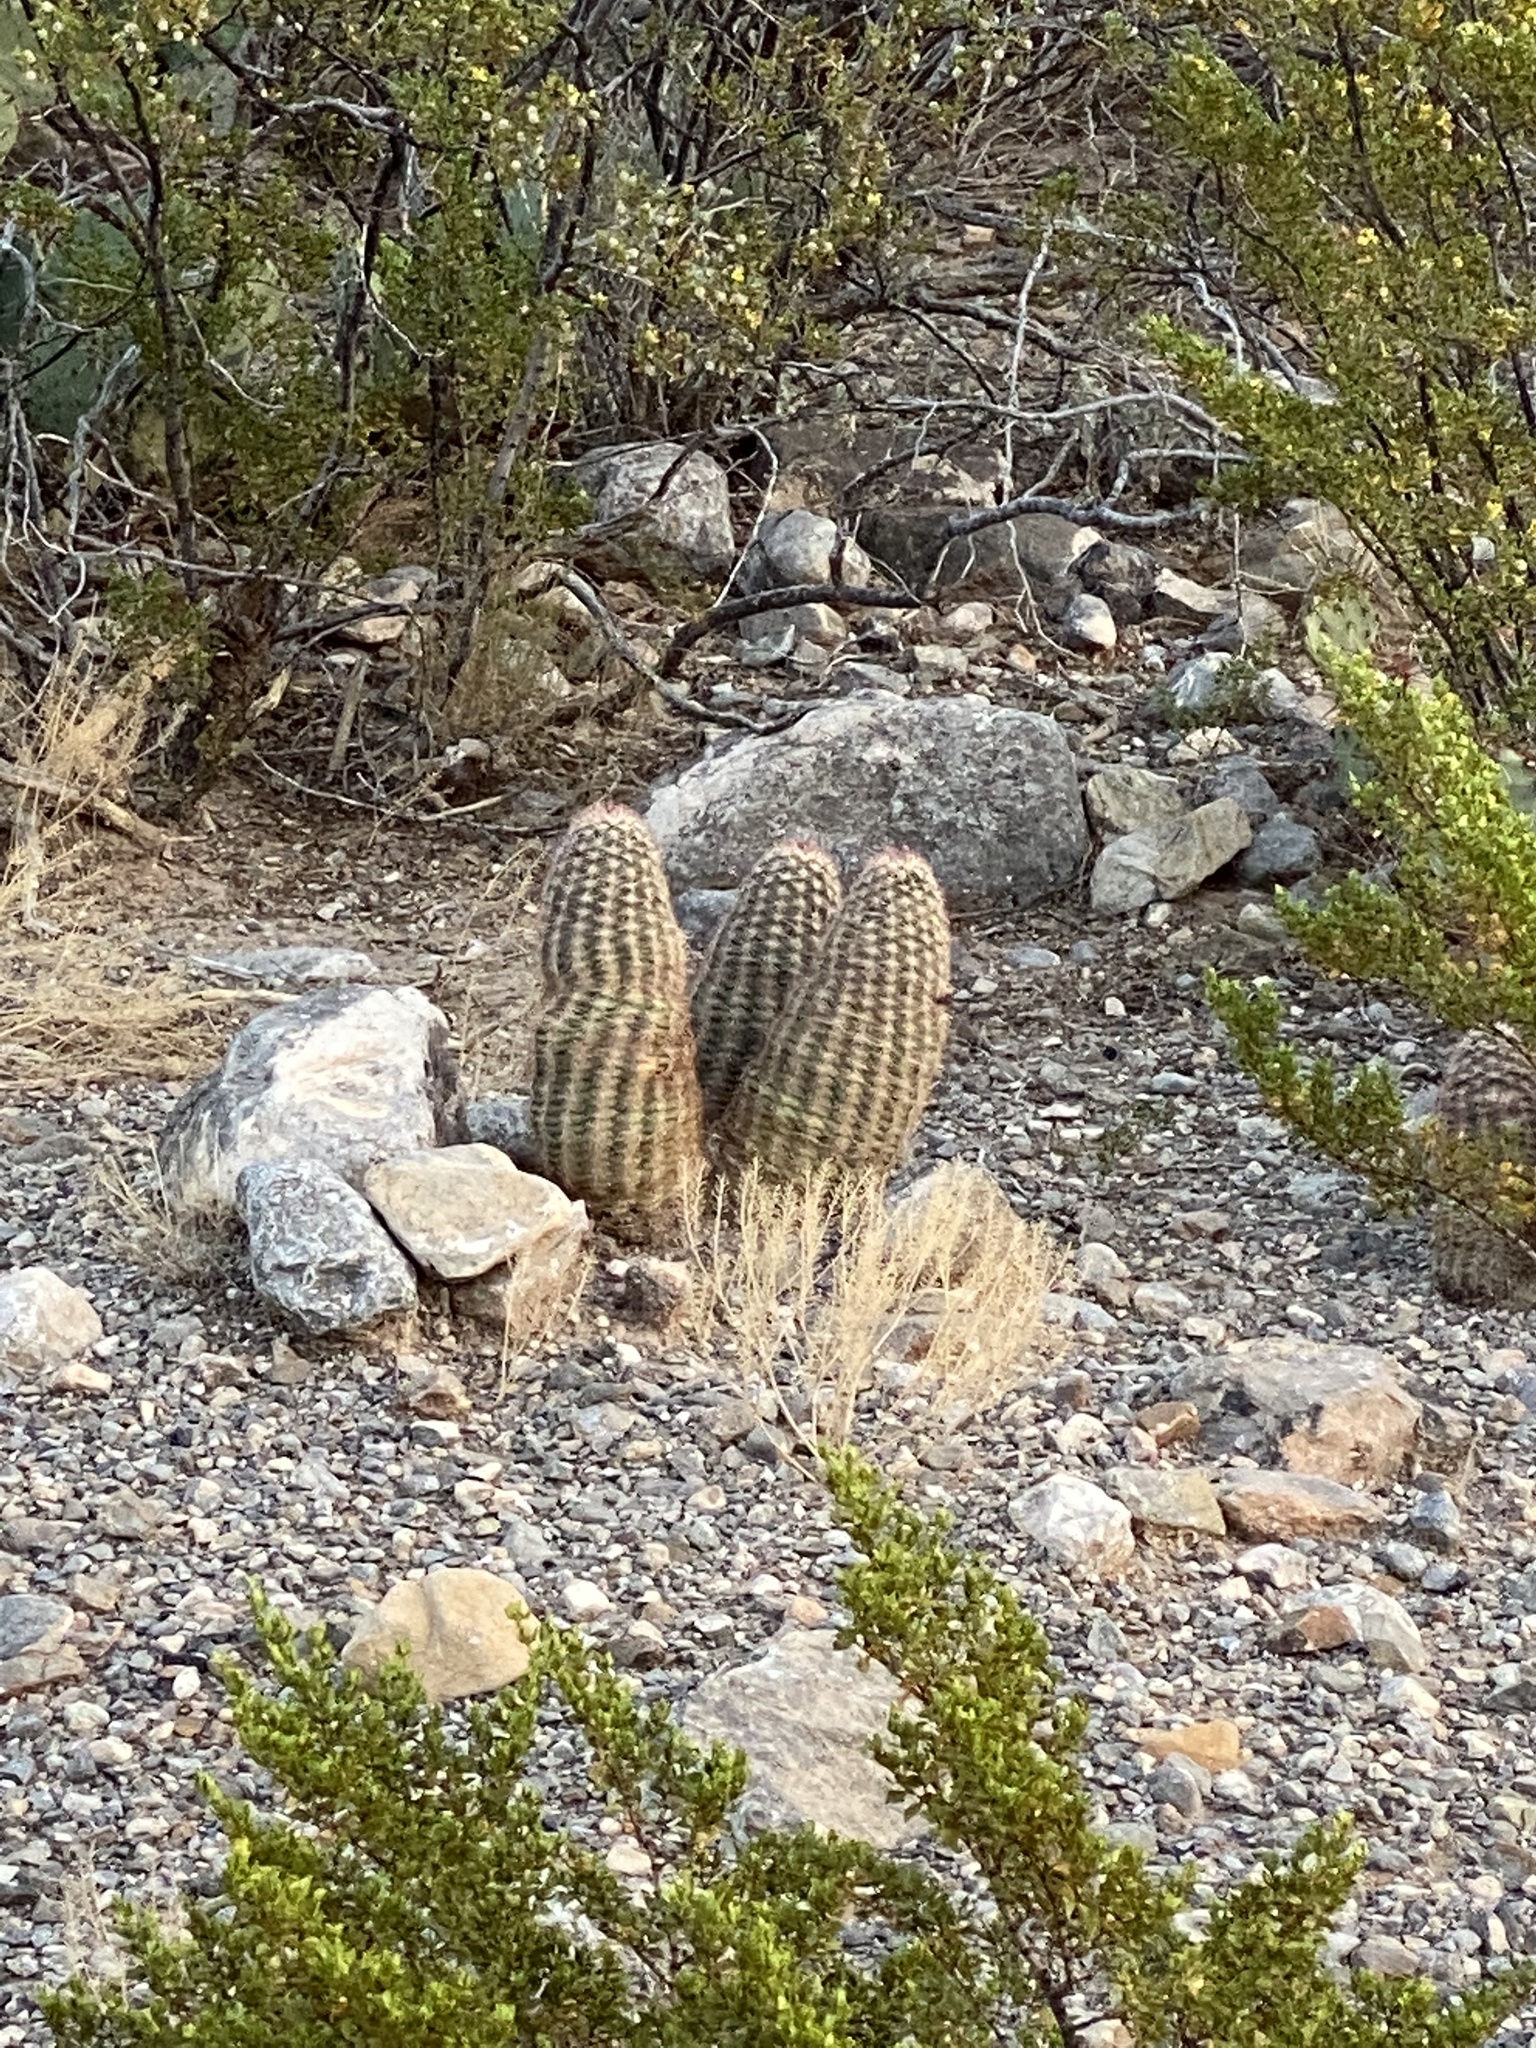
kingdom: Plantae
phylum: Tracheophyta
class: Magnoliopsida
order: Caryophyllales
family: Cactaceae
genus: Echinocereus
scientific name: Echinocereus dasyacanthus
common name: Spiny hedgehog cactus
